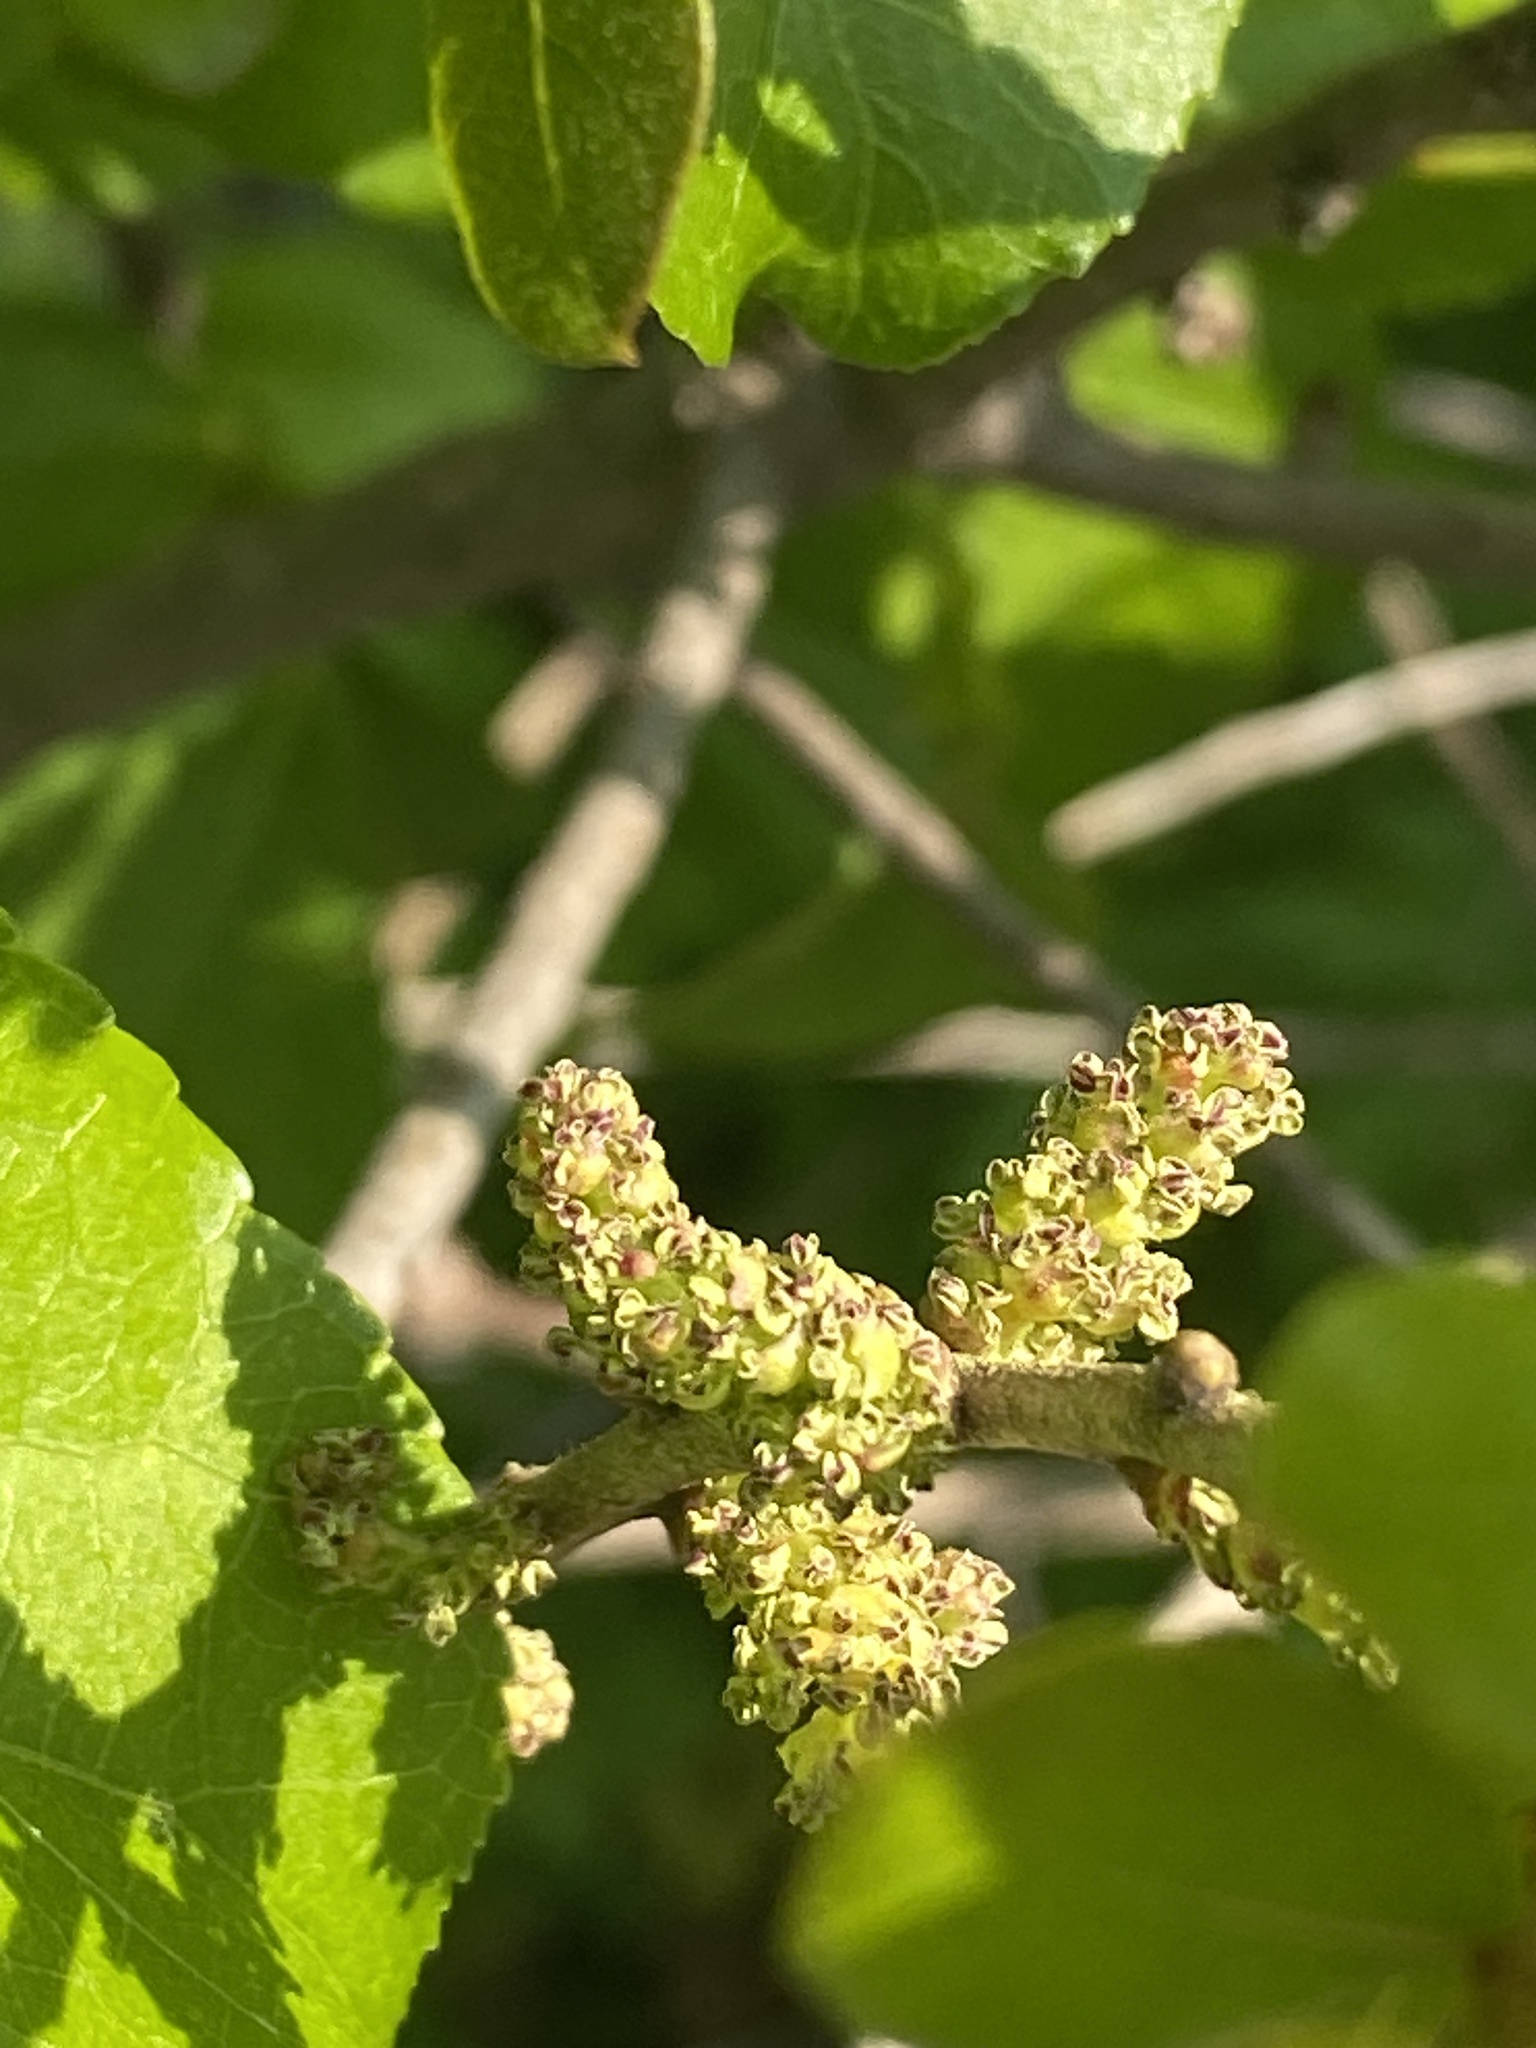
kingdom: Plantae
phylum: Tracheophyta
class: Magnoliopsida
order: Fagales
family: Myricaceae
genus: Morella
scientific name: Morella pensylvanica
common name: Northern bayberry
